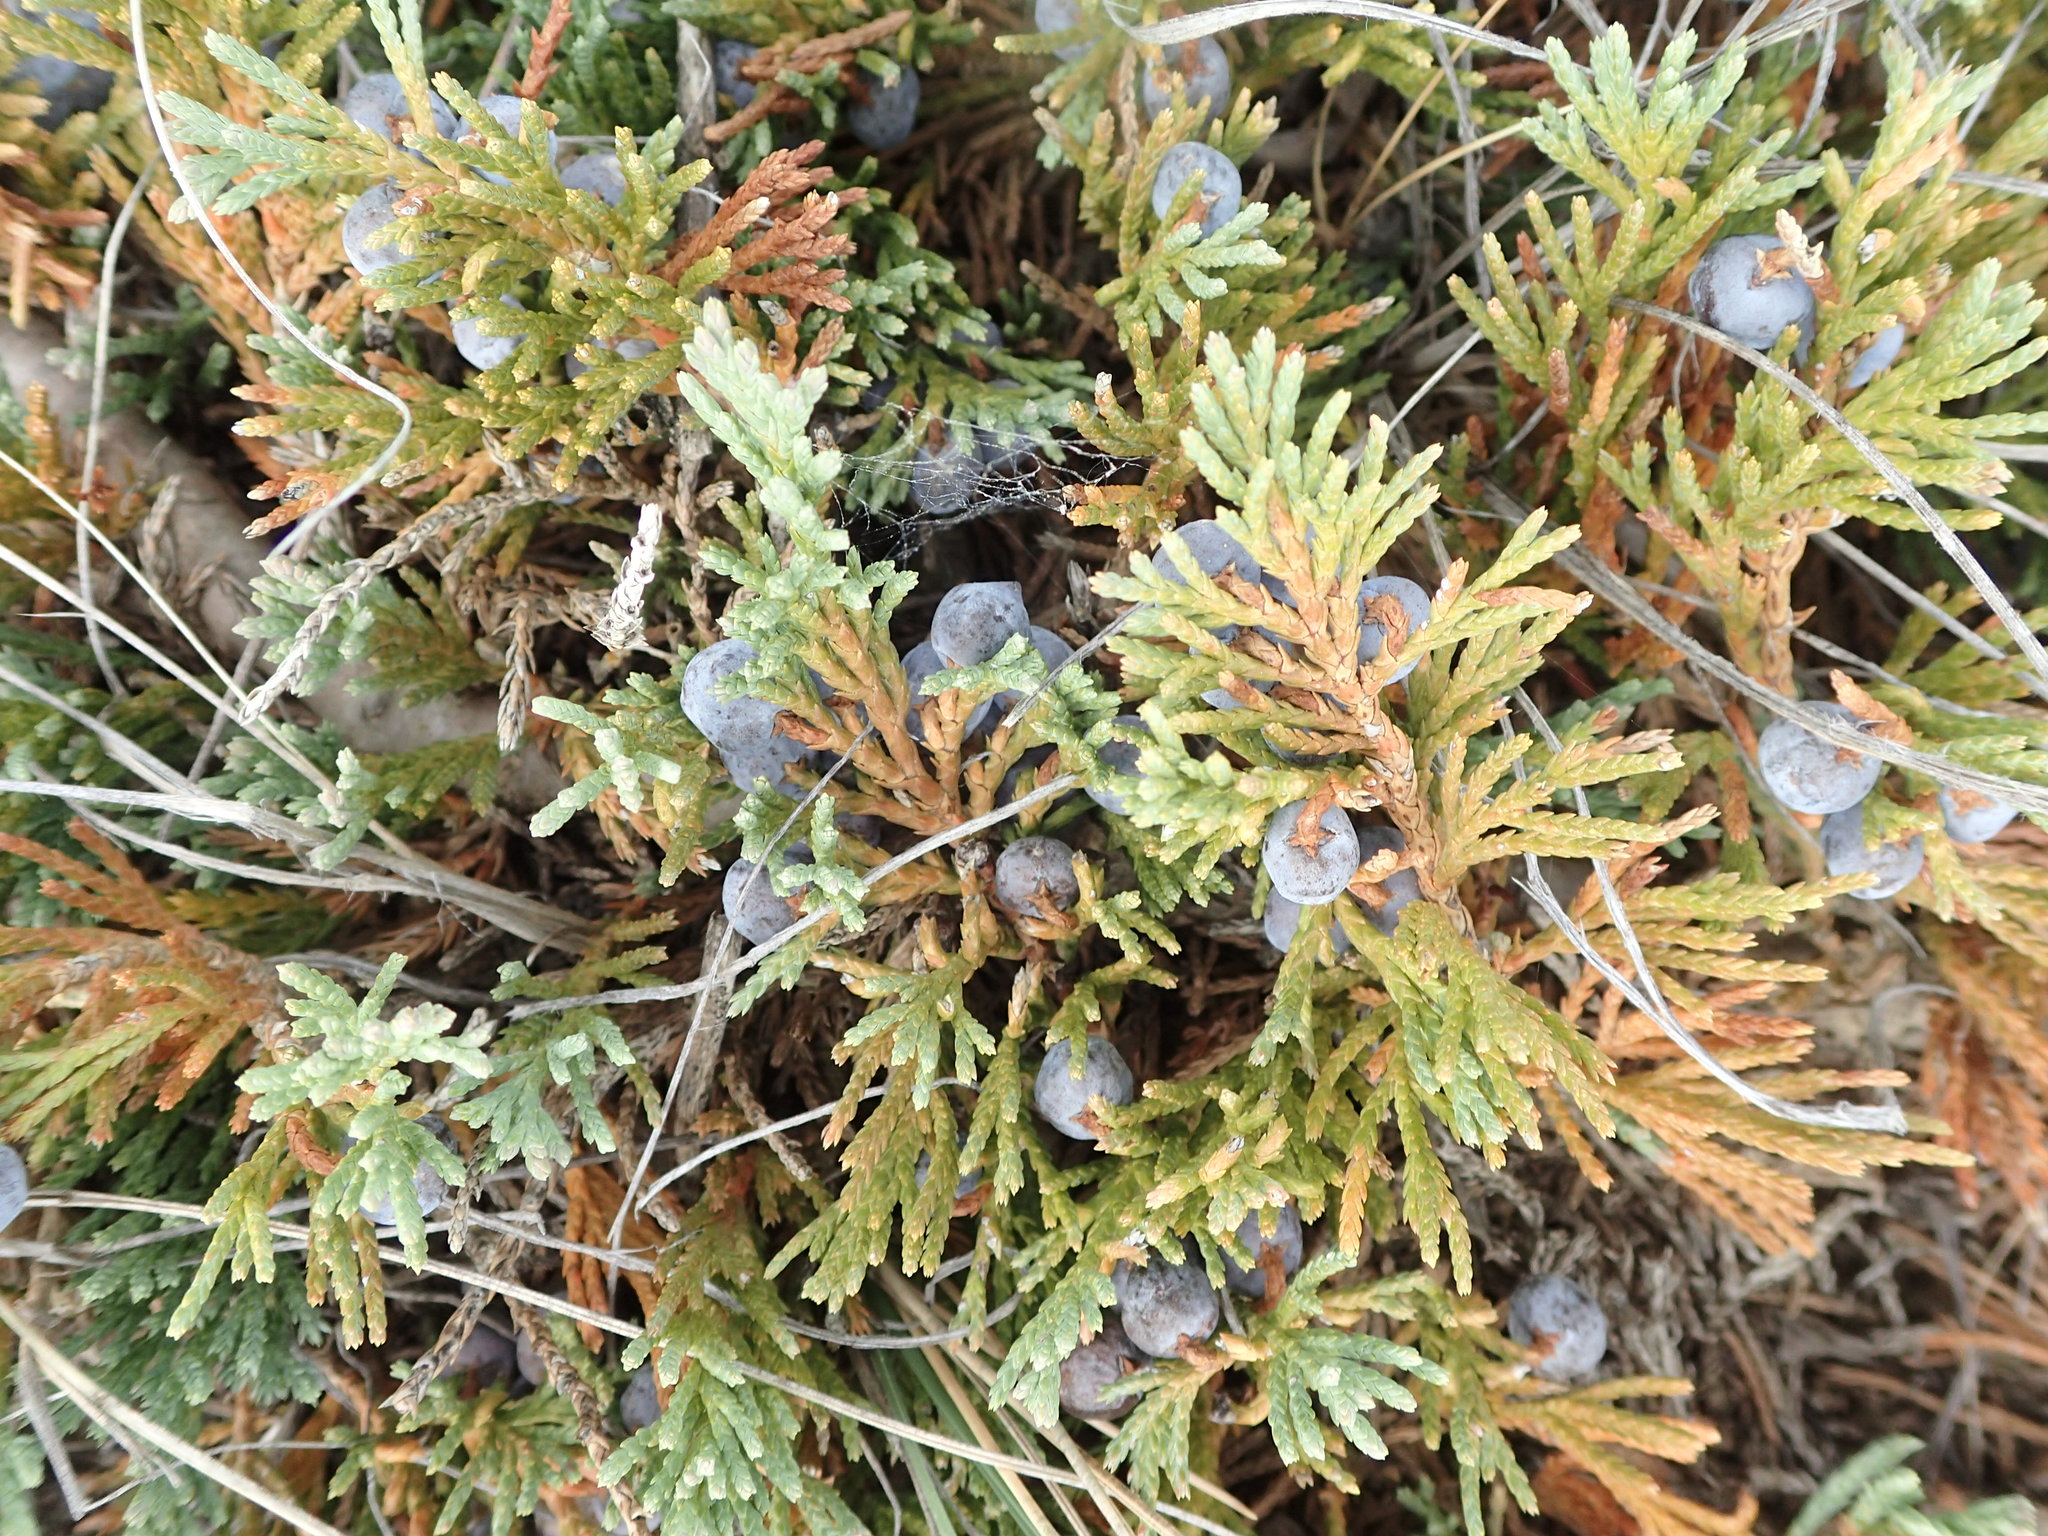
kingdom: Plantae
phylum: Tracheophyta
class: Pinopsida
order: Pinales
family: Cupressaceae
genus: Juniperus
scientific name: Juniperus horizontalis
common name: Creeping juniper
